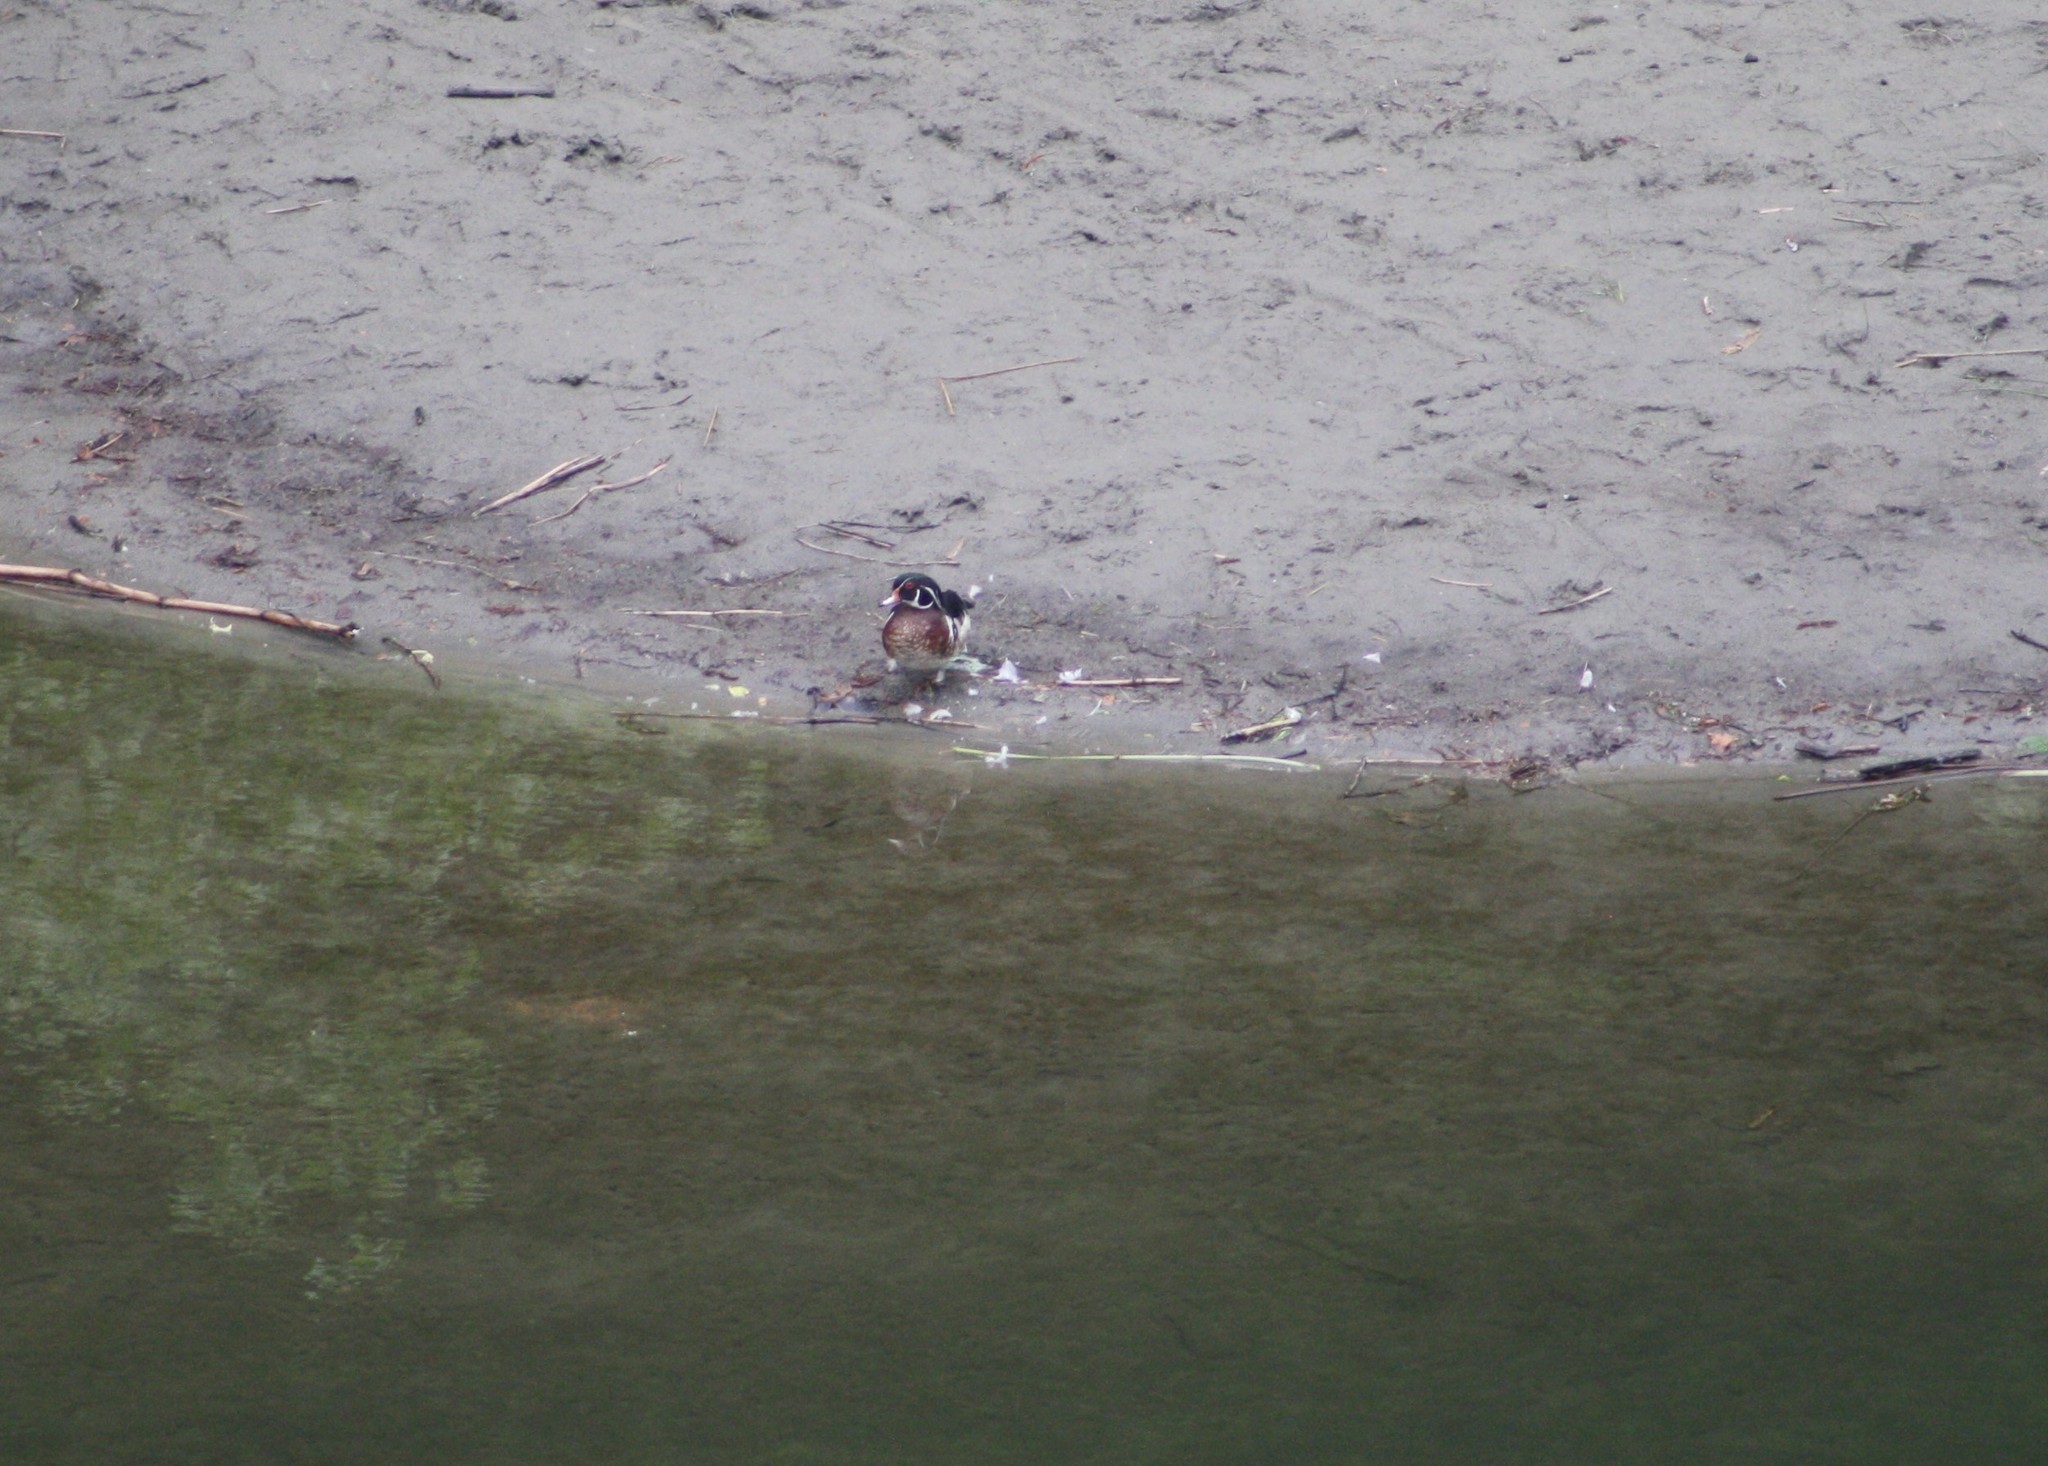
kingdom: Animalia
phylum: Chordata
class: Aves
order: Anseriformes
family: Anatidae
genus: Aix
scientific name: Aix sponsa
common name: Wood duck
